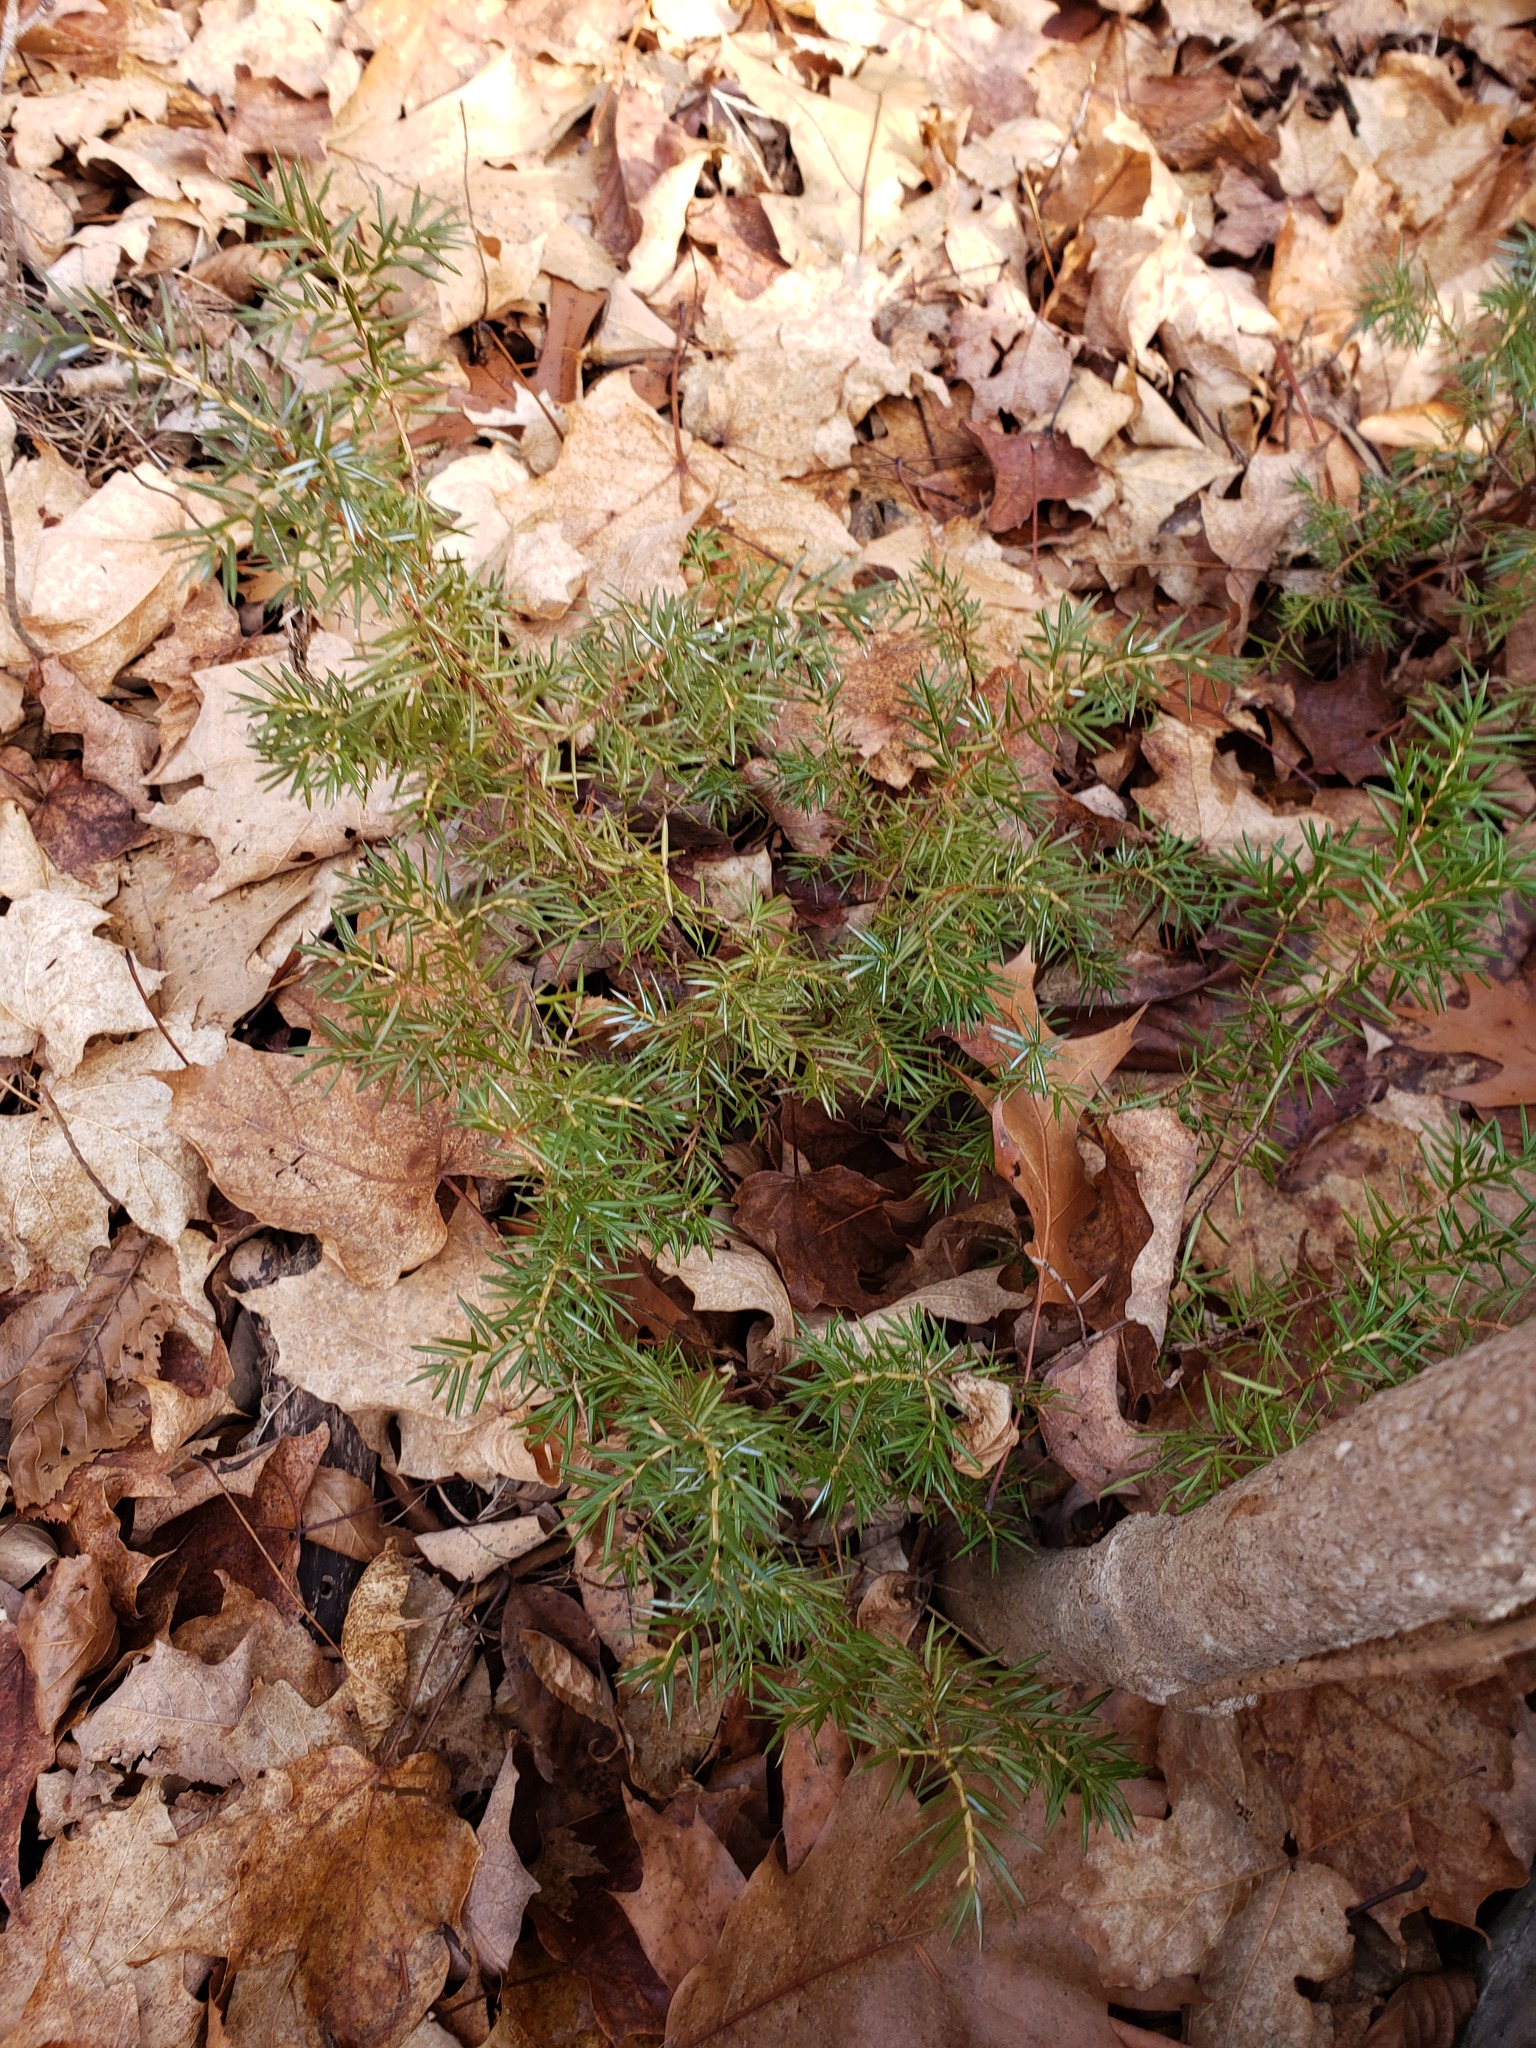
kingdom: Plantae
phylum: Tracheophyta
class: Pinopsida
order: Pinales
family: Cupressaceae
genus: Juniperus
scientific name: Juniperus communis
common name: Common juniper
